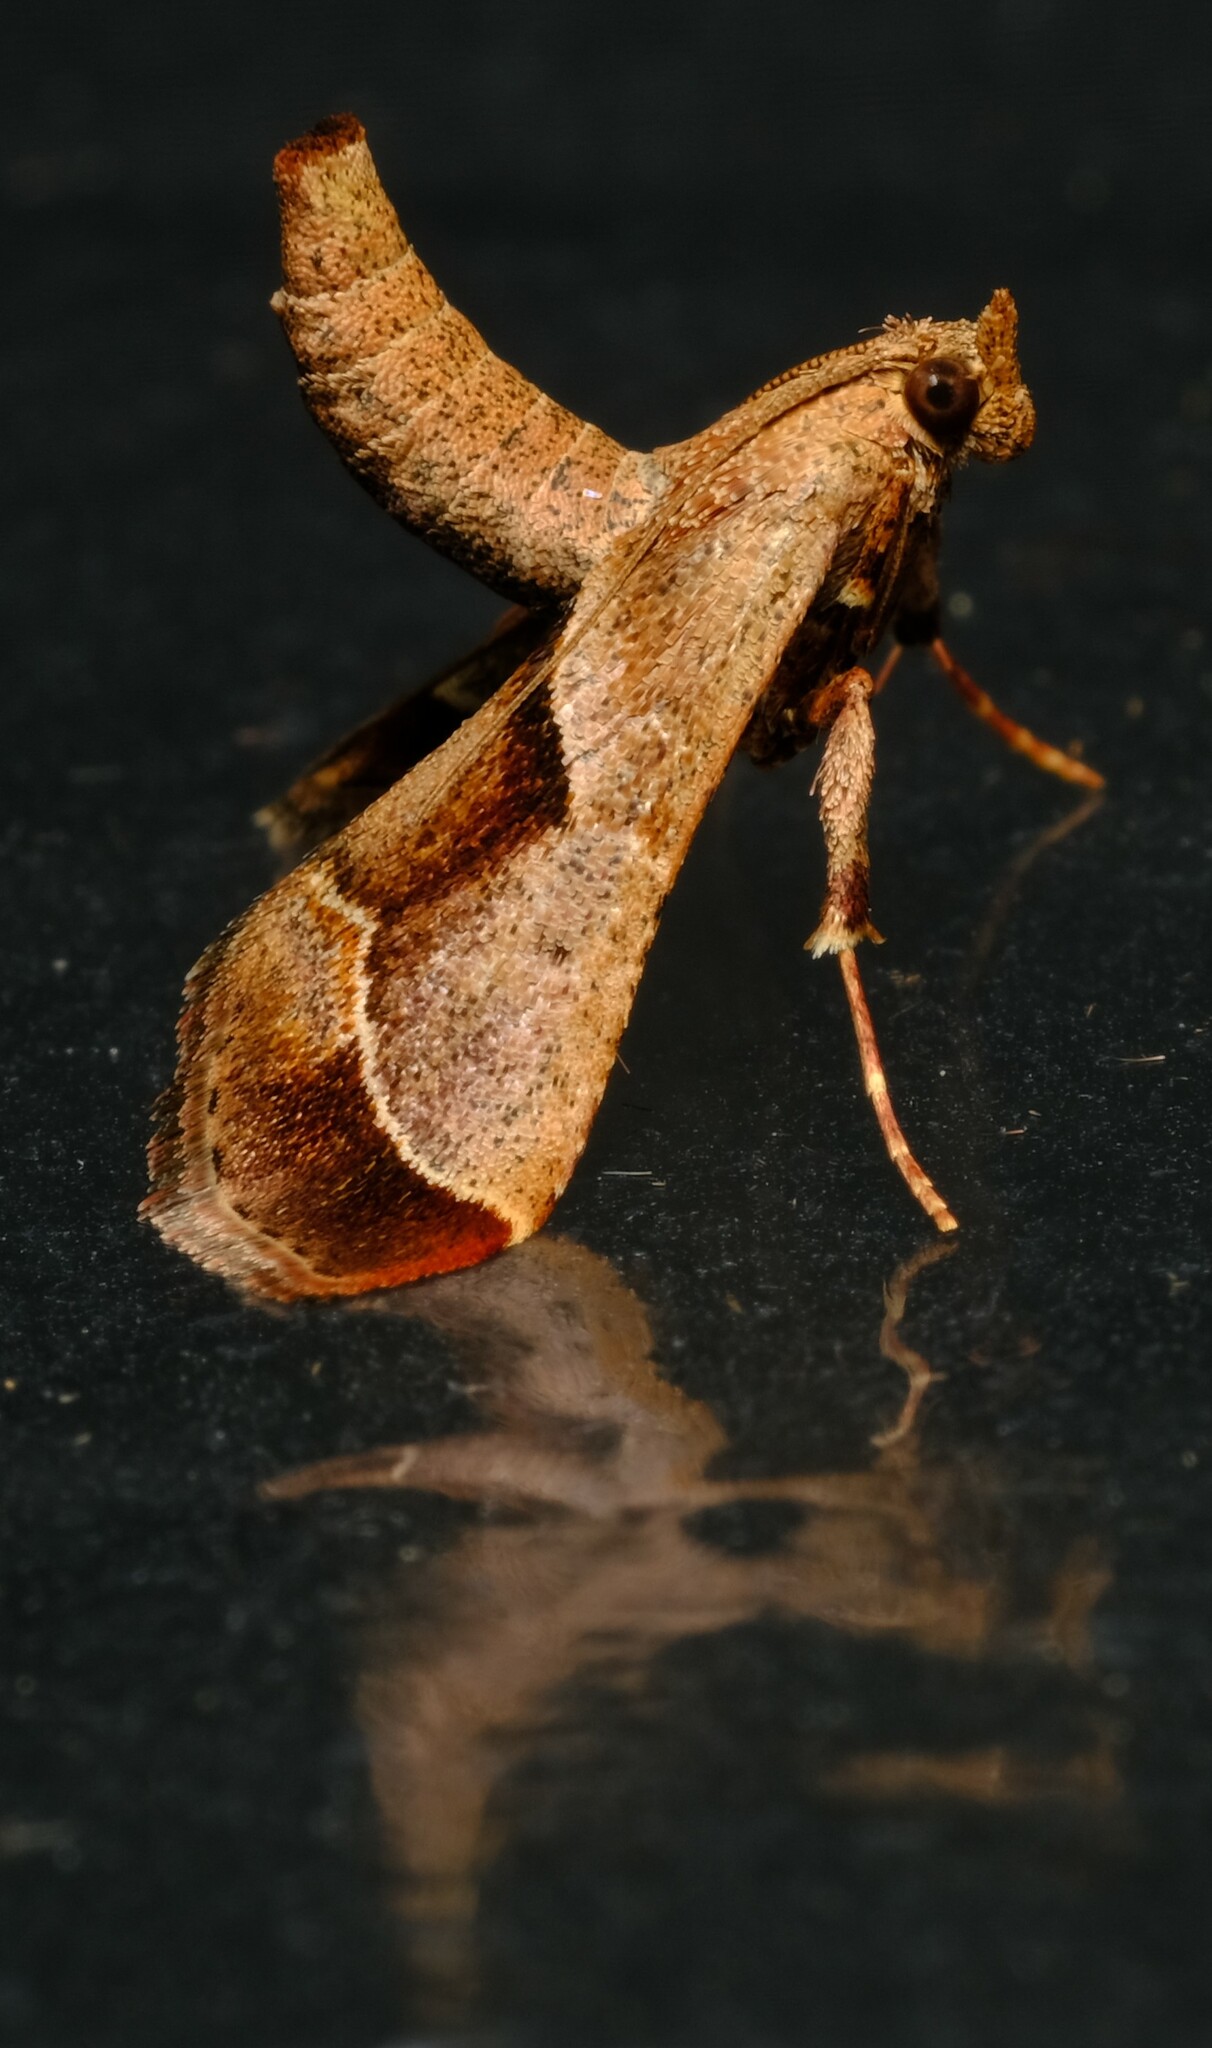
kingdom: Animalia
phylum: Arthropoda
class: Insecta
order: Lepidoptera
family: Pyralidae
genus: Gauna
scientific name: Gauna aegusalis
